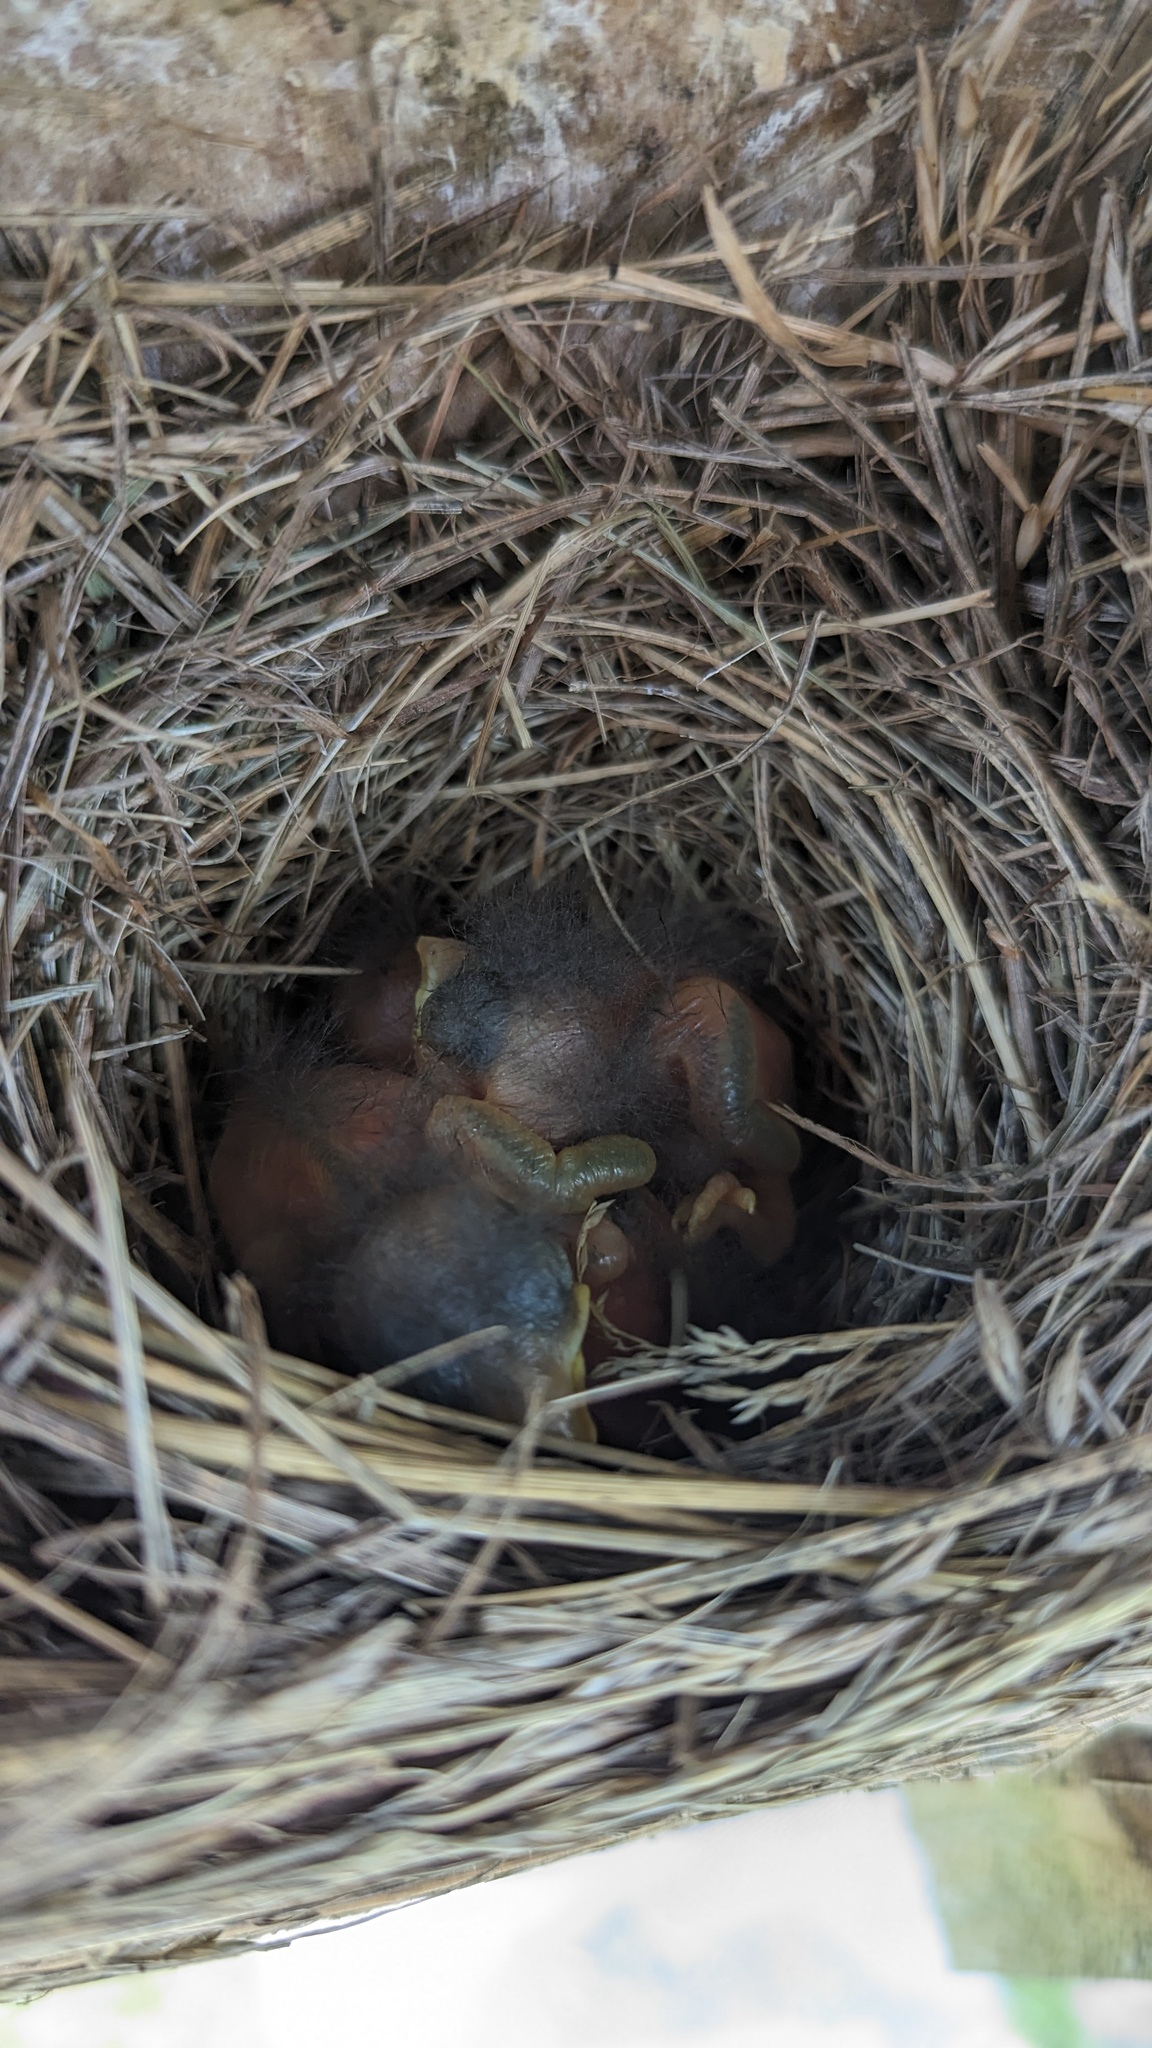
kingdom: Animalia
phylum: Chordata
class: Aves
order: Passeriformes
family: Turdidae
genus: Sialia
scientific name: Sialia sialis
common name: Eastern bluebird
